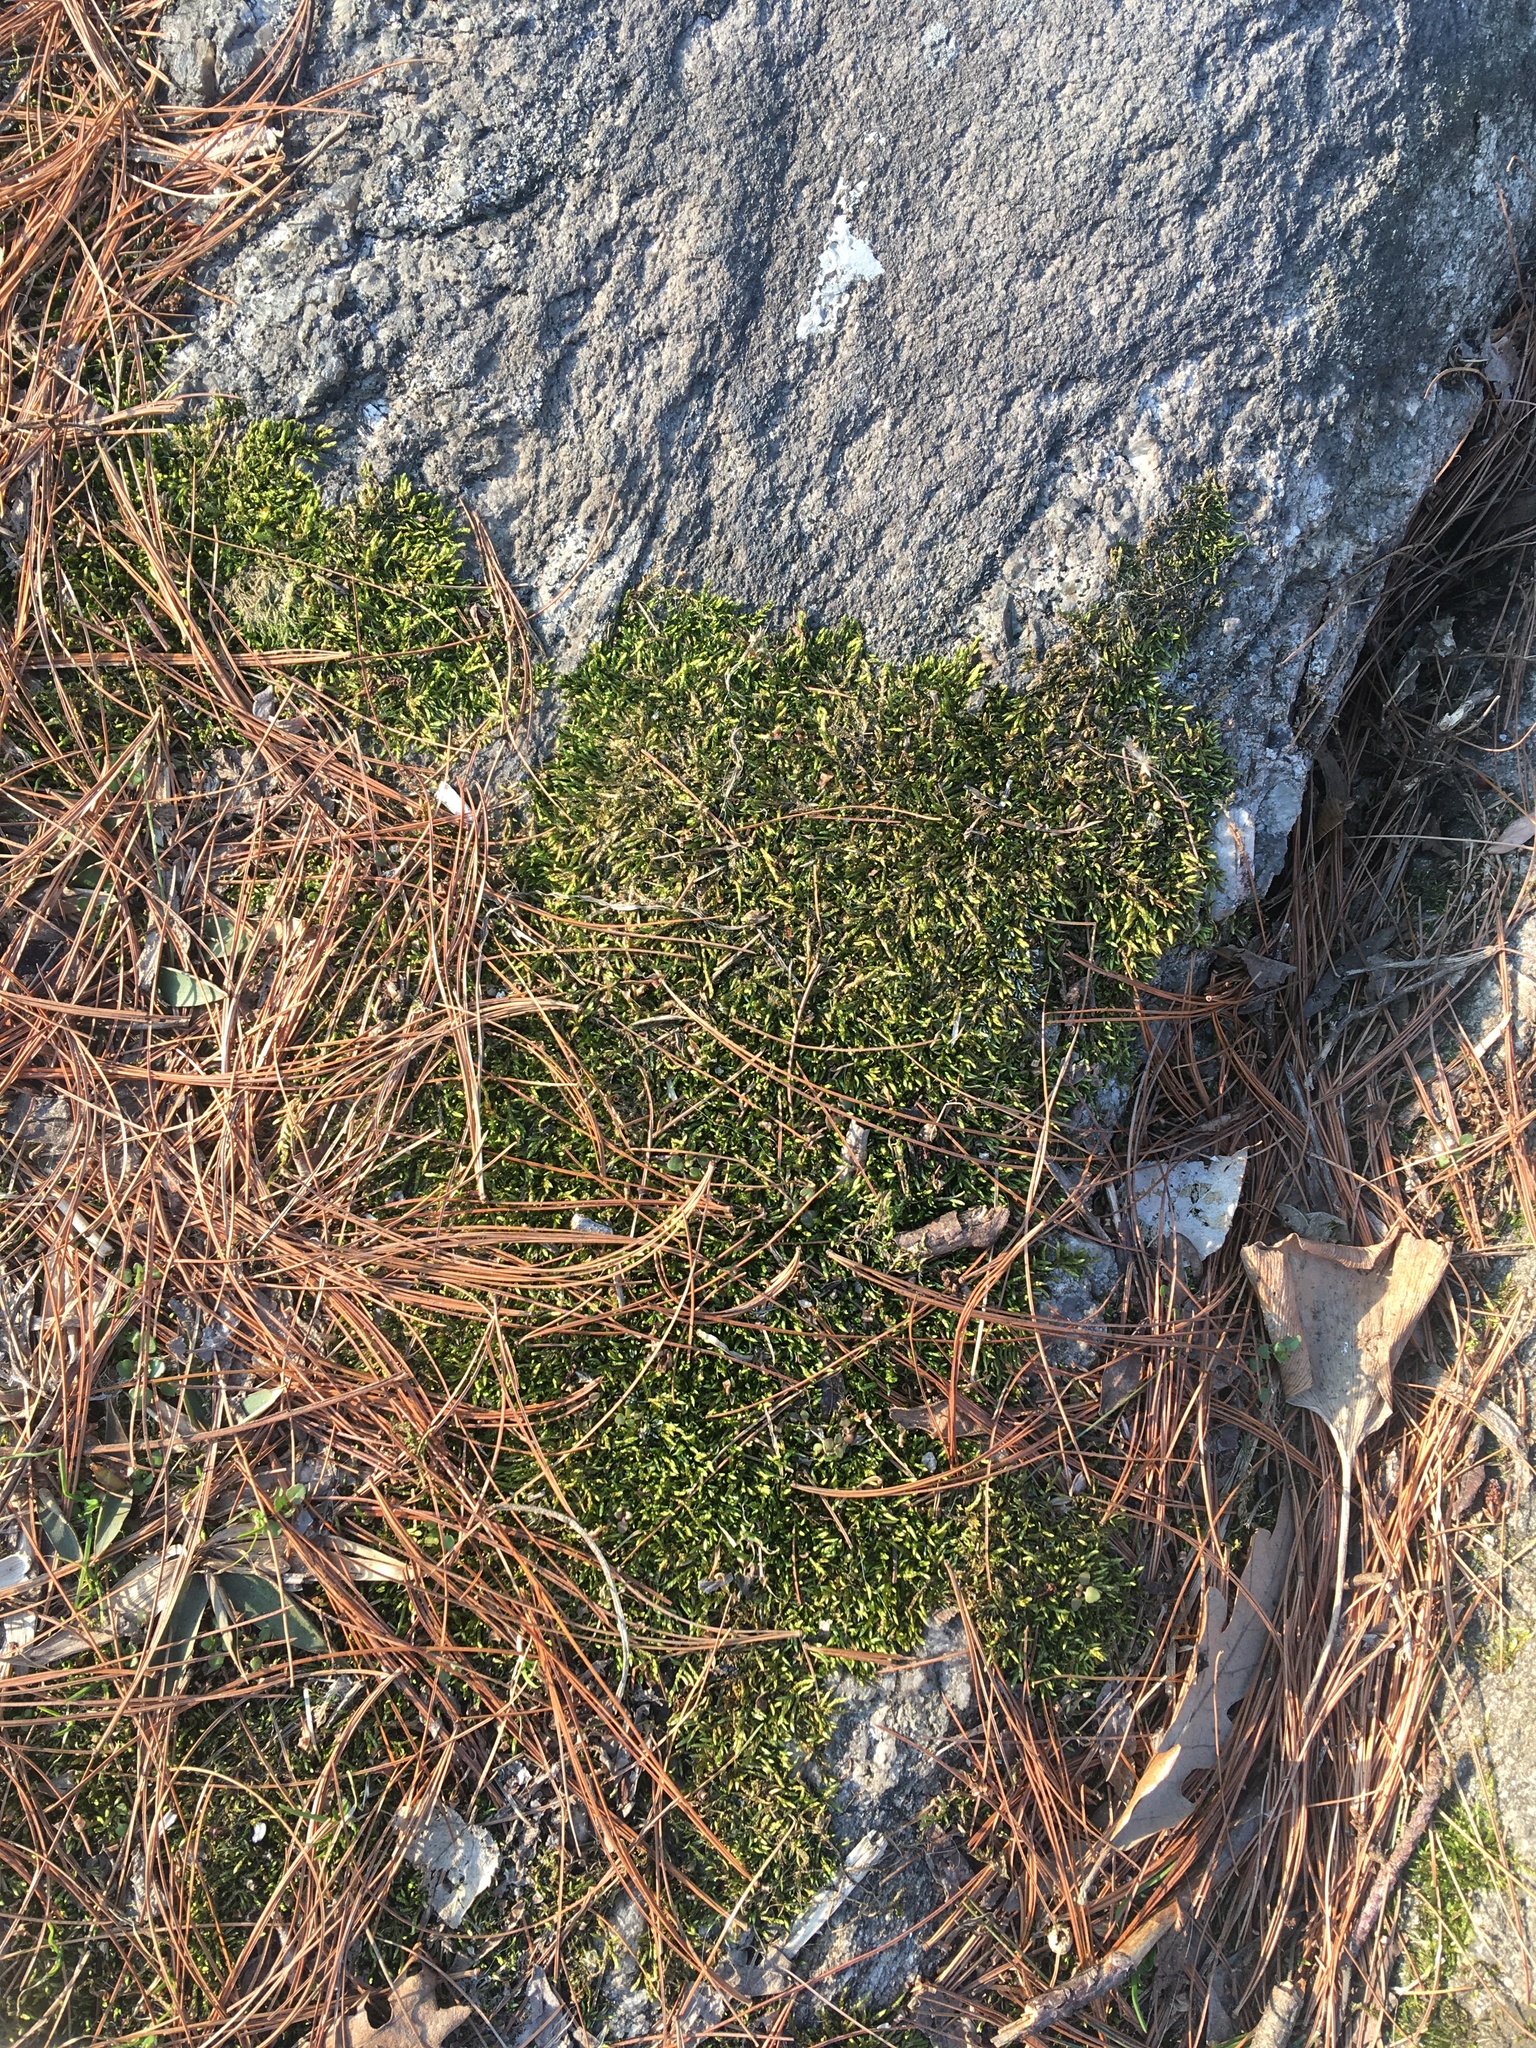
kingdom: Plantae
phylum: Bryophyta
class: Bryopsida
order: Hypnales
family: Entodontaceae
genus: Entodon
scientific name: Entodon seductrix
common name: Round-stemmed entodon moss
